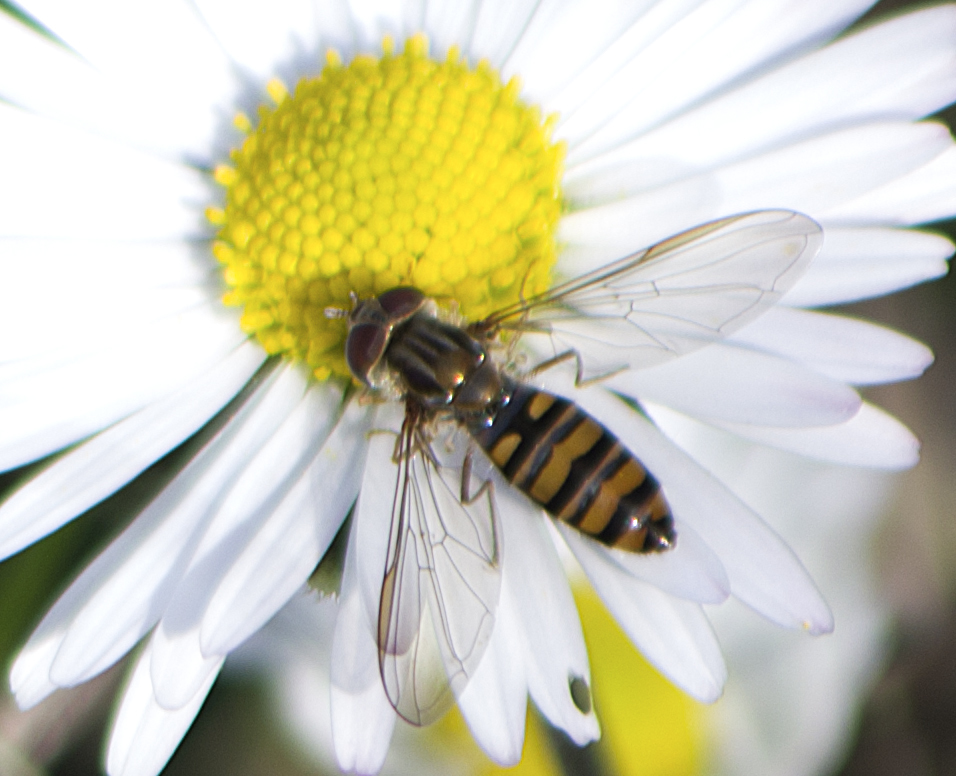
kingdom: Animalia
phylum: Arthropoda
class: Insecta
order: Diptera
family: Syrphidae
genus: Episyrphus
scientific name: Episyrphus balteatus
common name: Marmalade hoverfly
